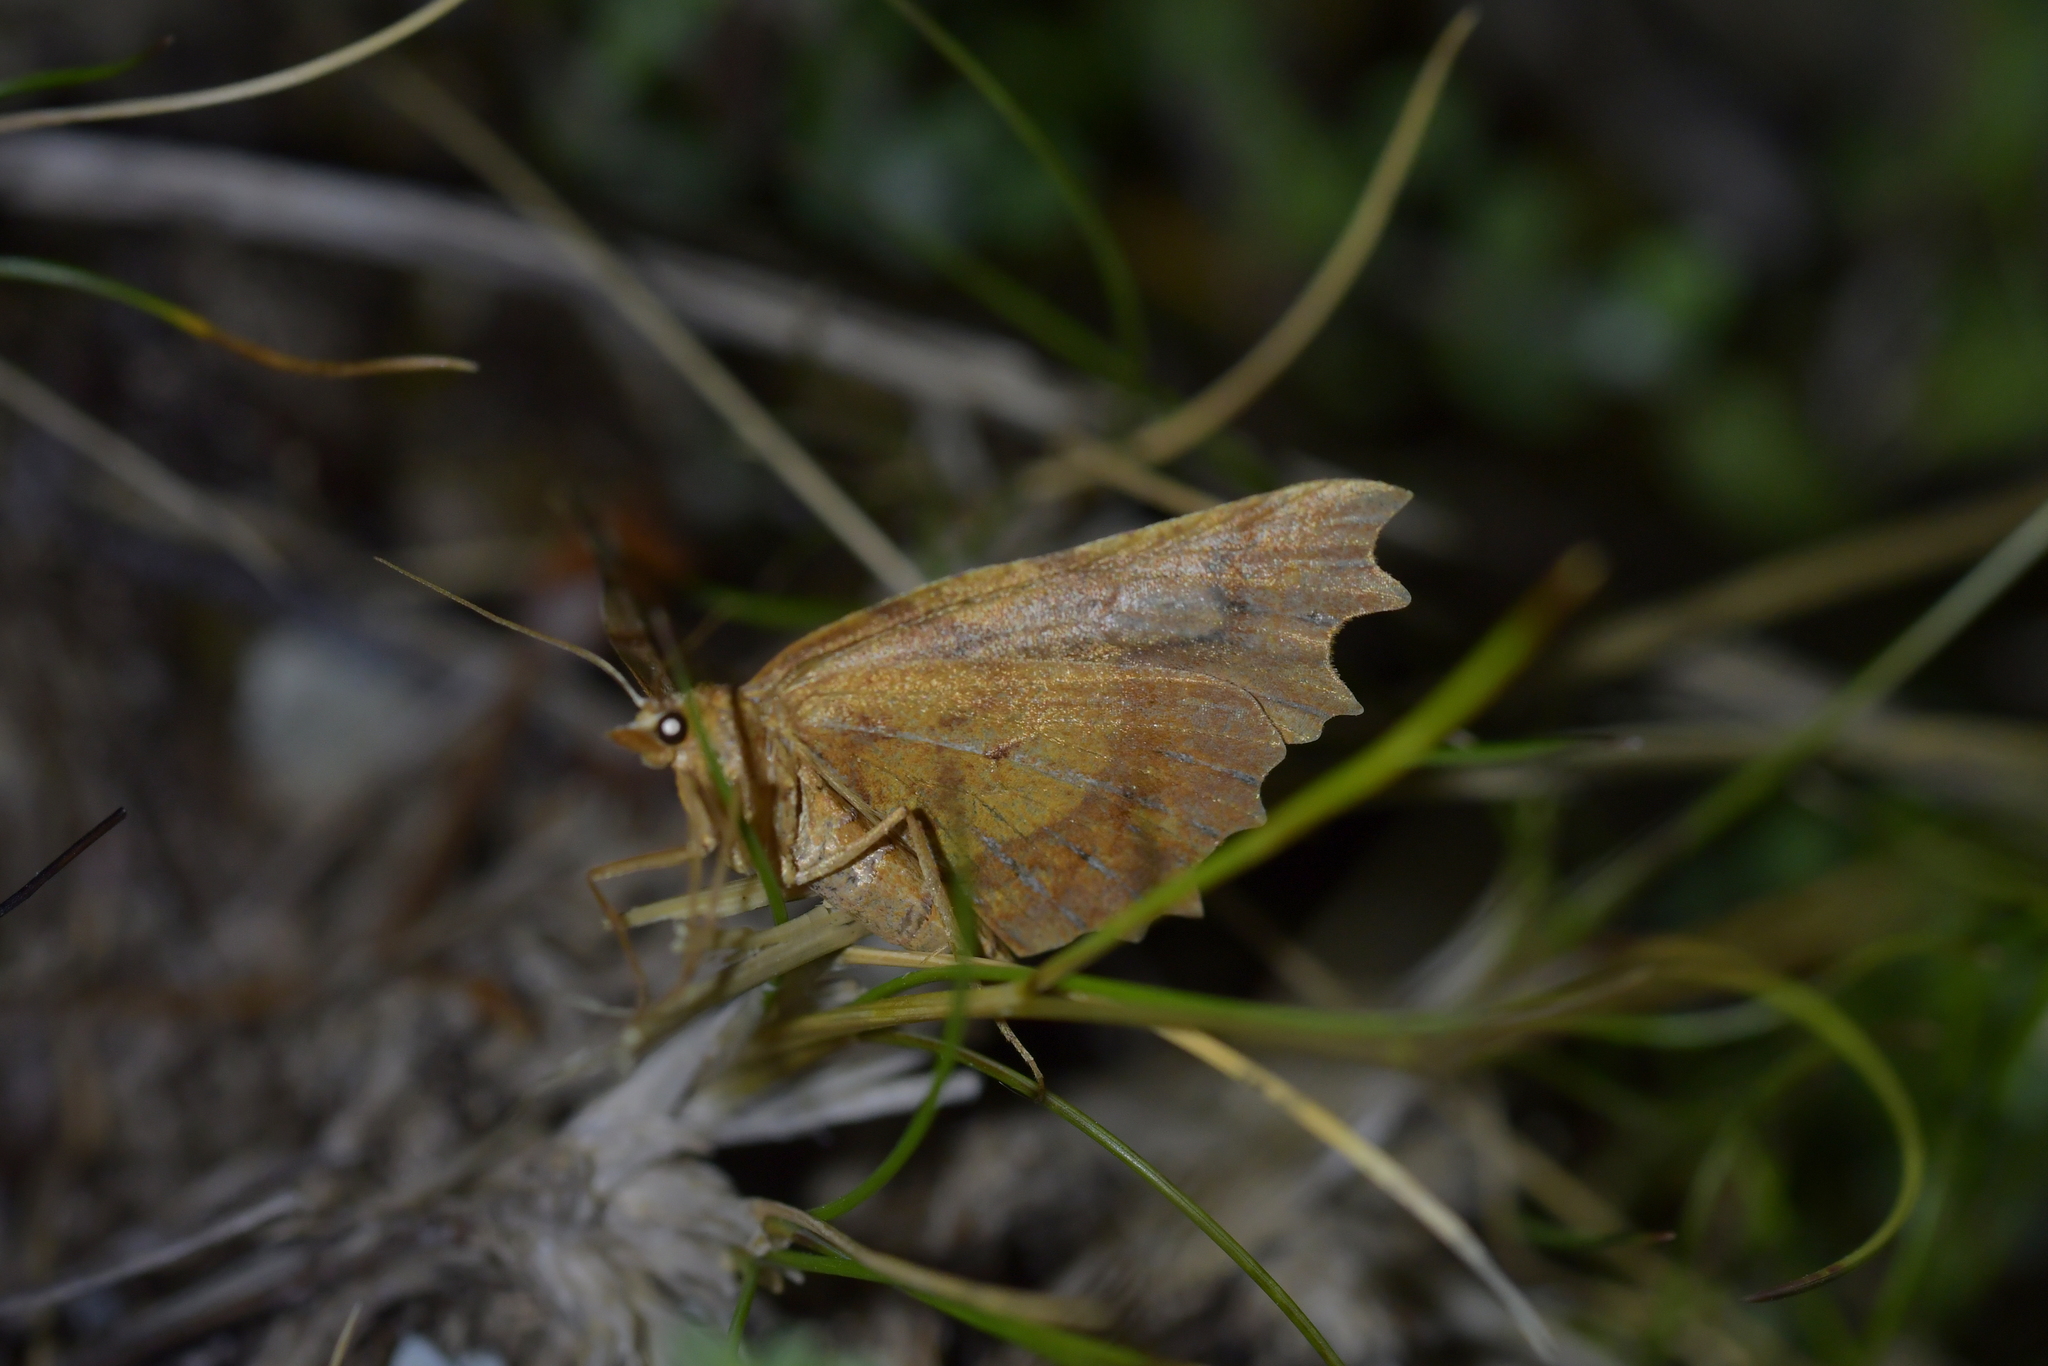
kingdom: Animalia
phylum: Arthropoda
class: Insecta
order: Lepidoptera
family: Geometridae
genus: Ischalis
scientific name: Ischalis fortinata
